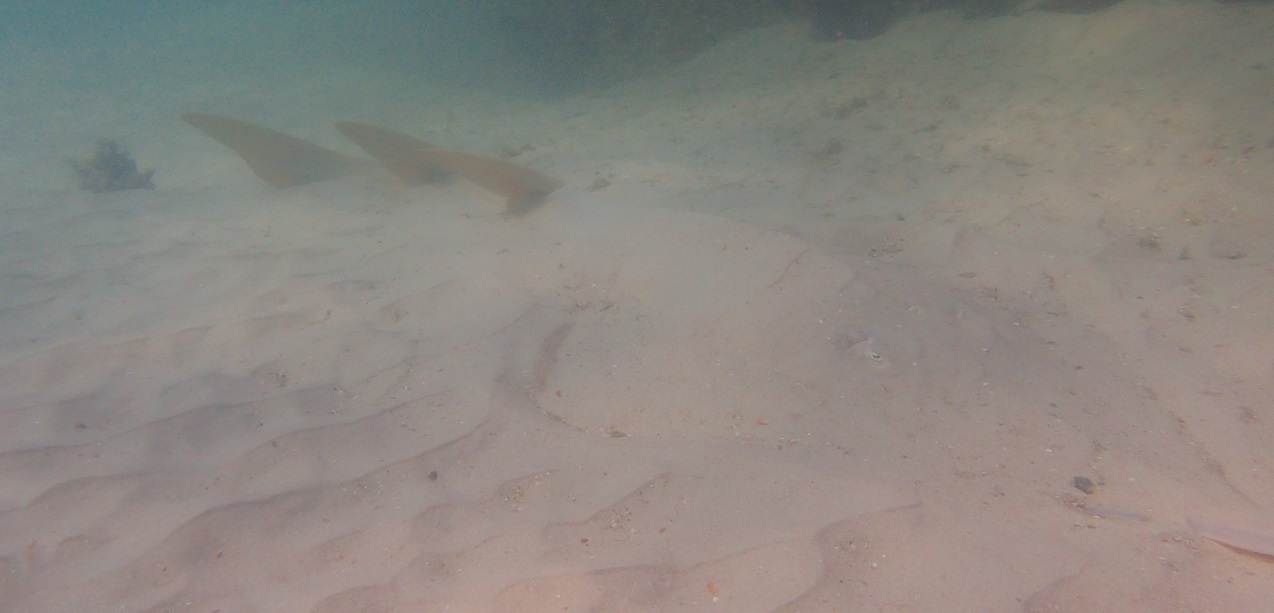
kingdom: Animalia
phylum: Chordata
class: Elasmobranchii
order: Rhinopristiformes
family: Glaucostegidae
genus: Glaucostegus
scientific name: Glaucostegus typus
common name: Giant shovelnose ray
